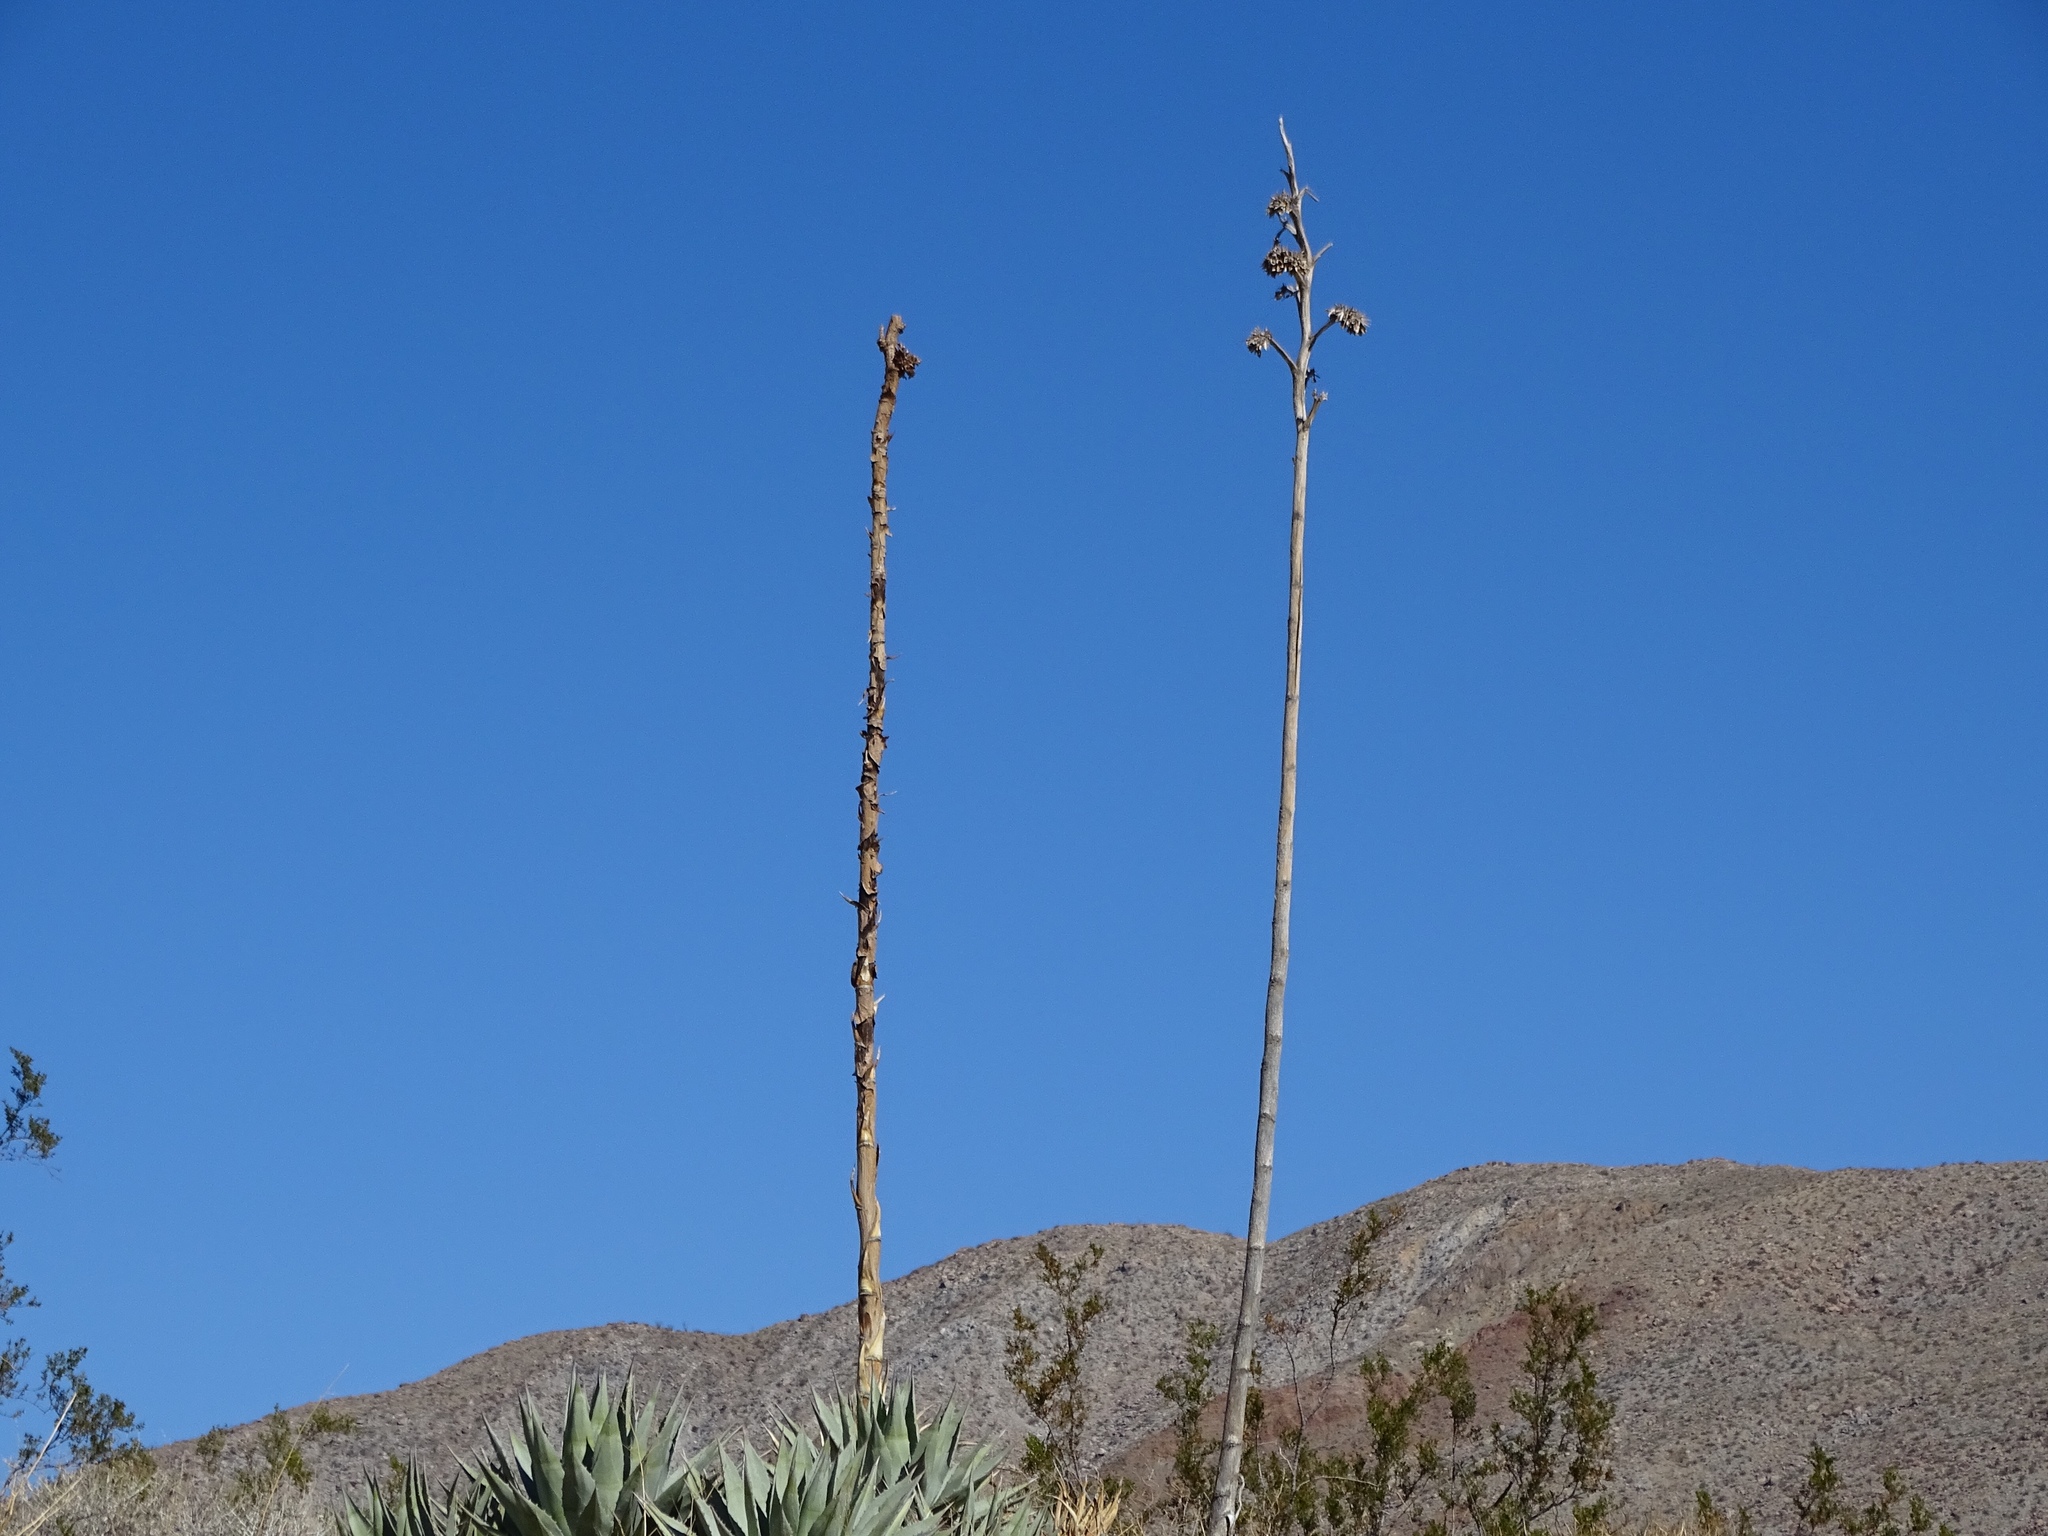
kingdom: Plantae
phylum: Tracheophyta
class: Liliopsida
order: Asparagales
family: Asparagaceae
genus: Agave
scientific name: Agave deserti
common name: Desert agave
